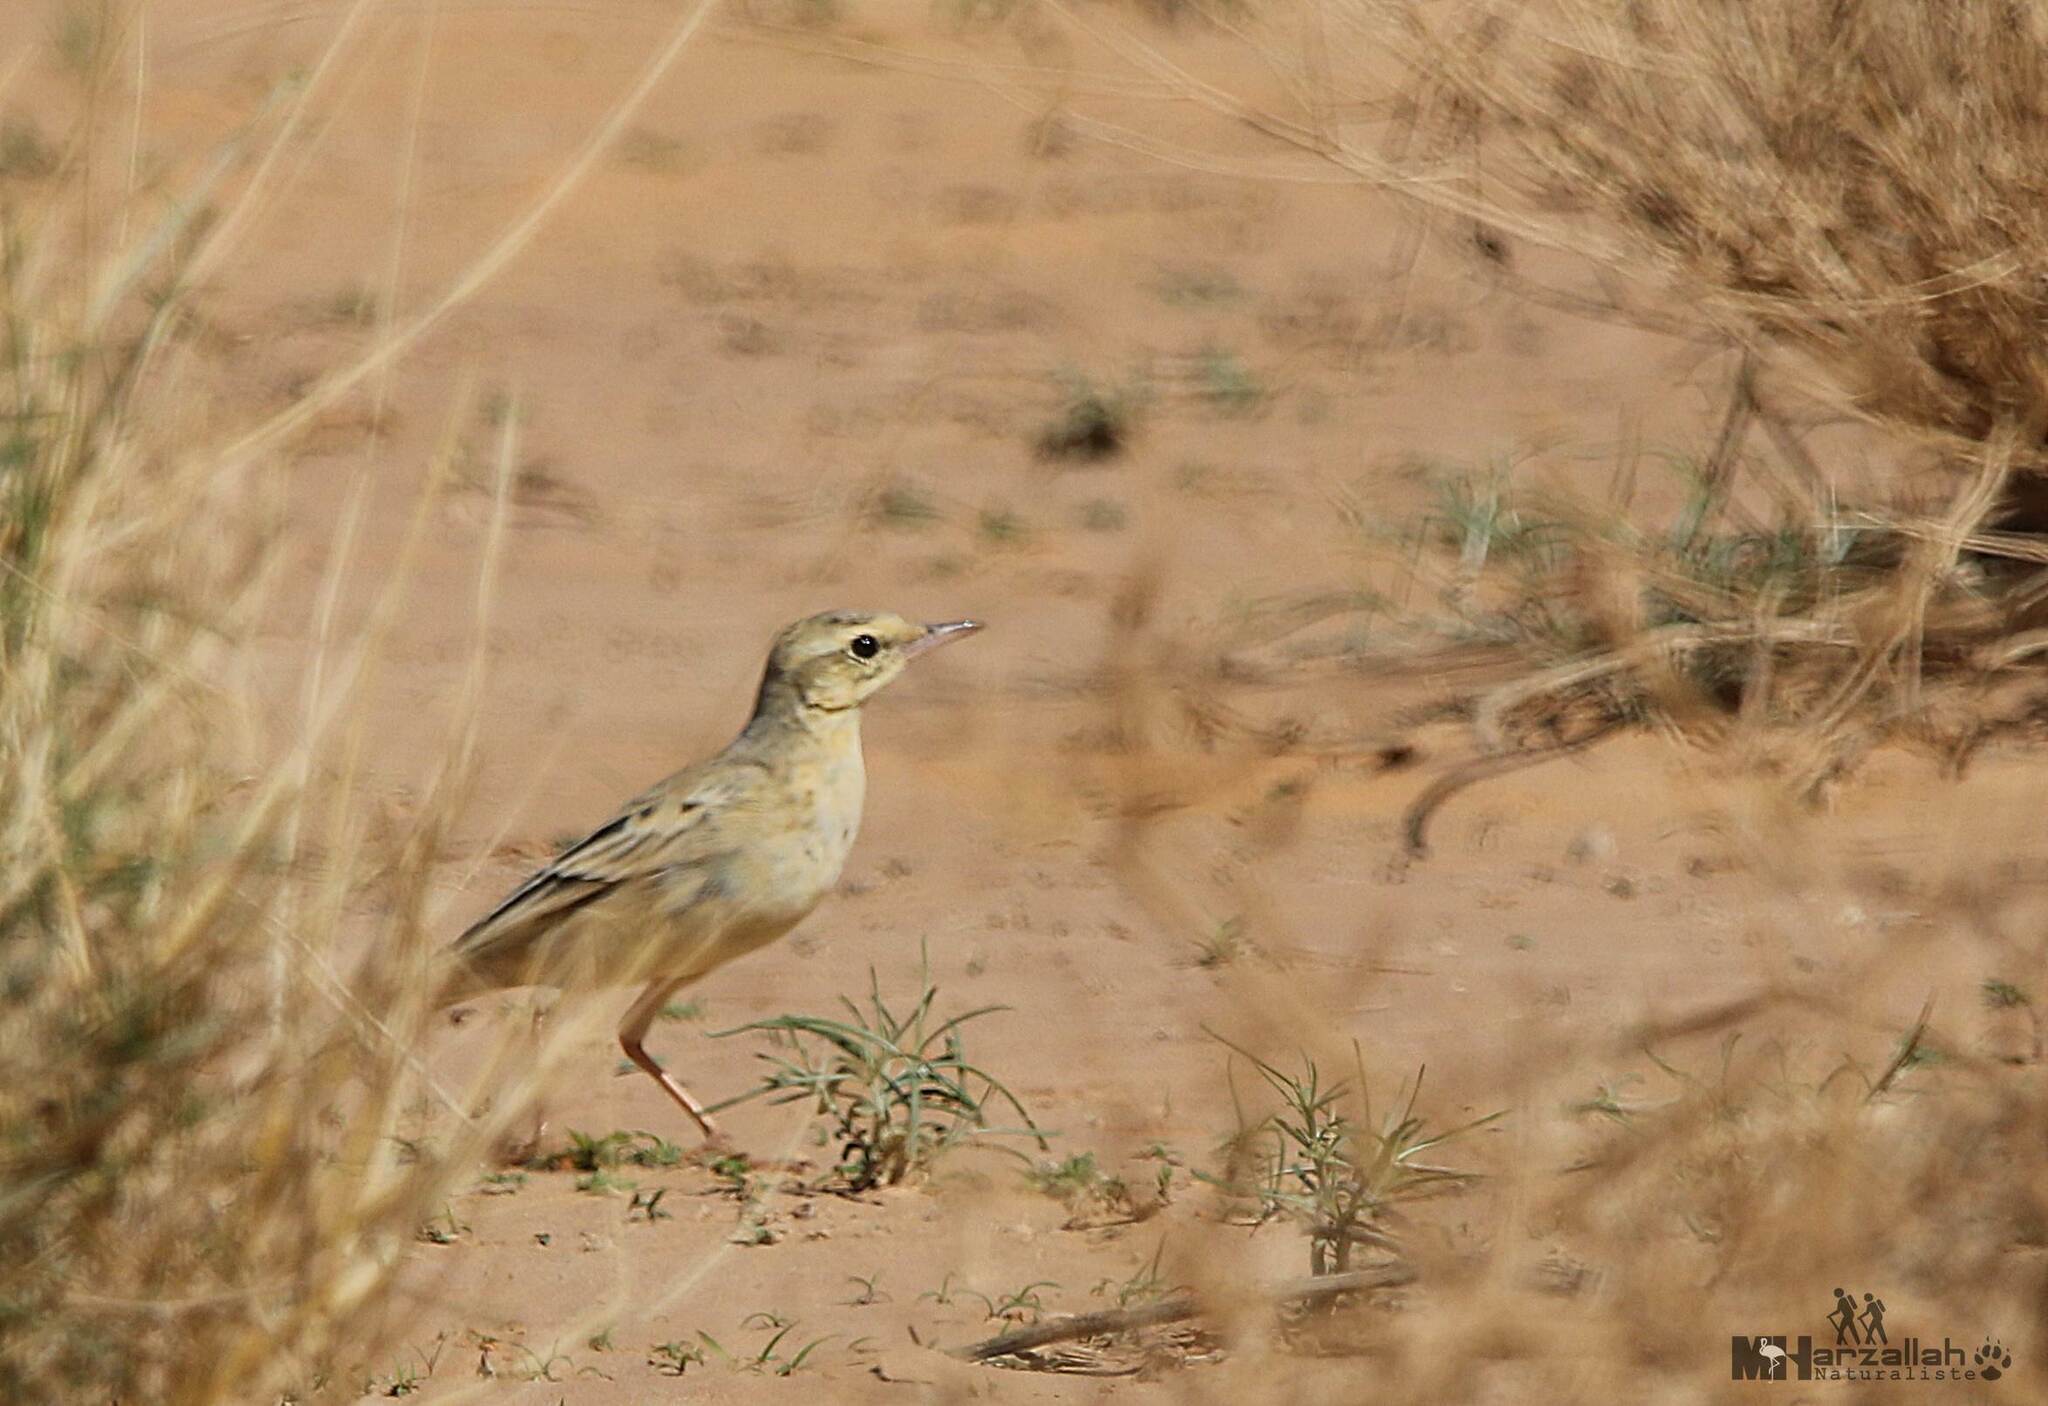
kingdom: Animalia
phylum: Chordata
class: Aves
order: Passeriformes
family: Motacillidae
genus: Anthus
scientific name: Anthus campestris
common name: Tawny pipit
